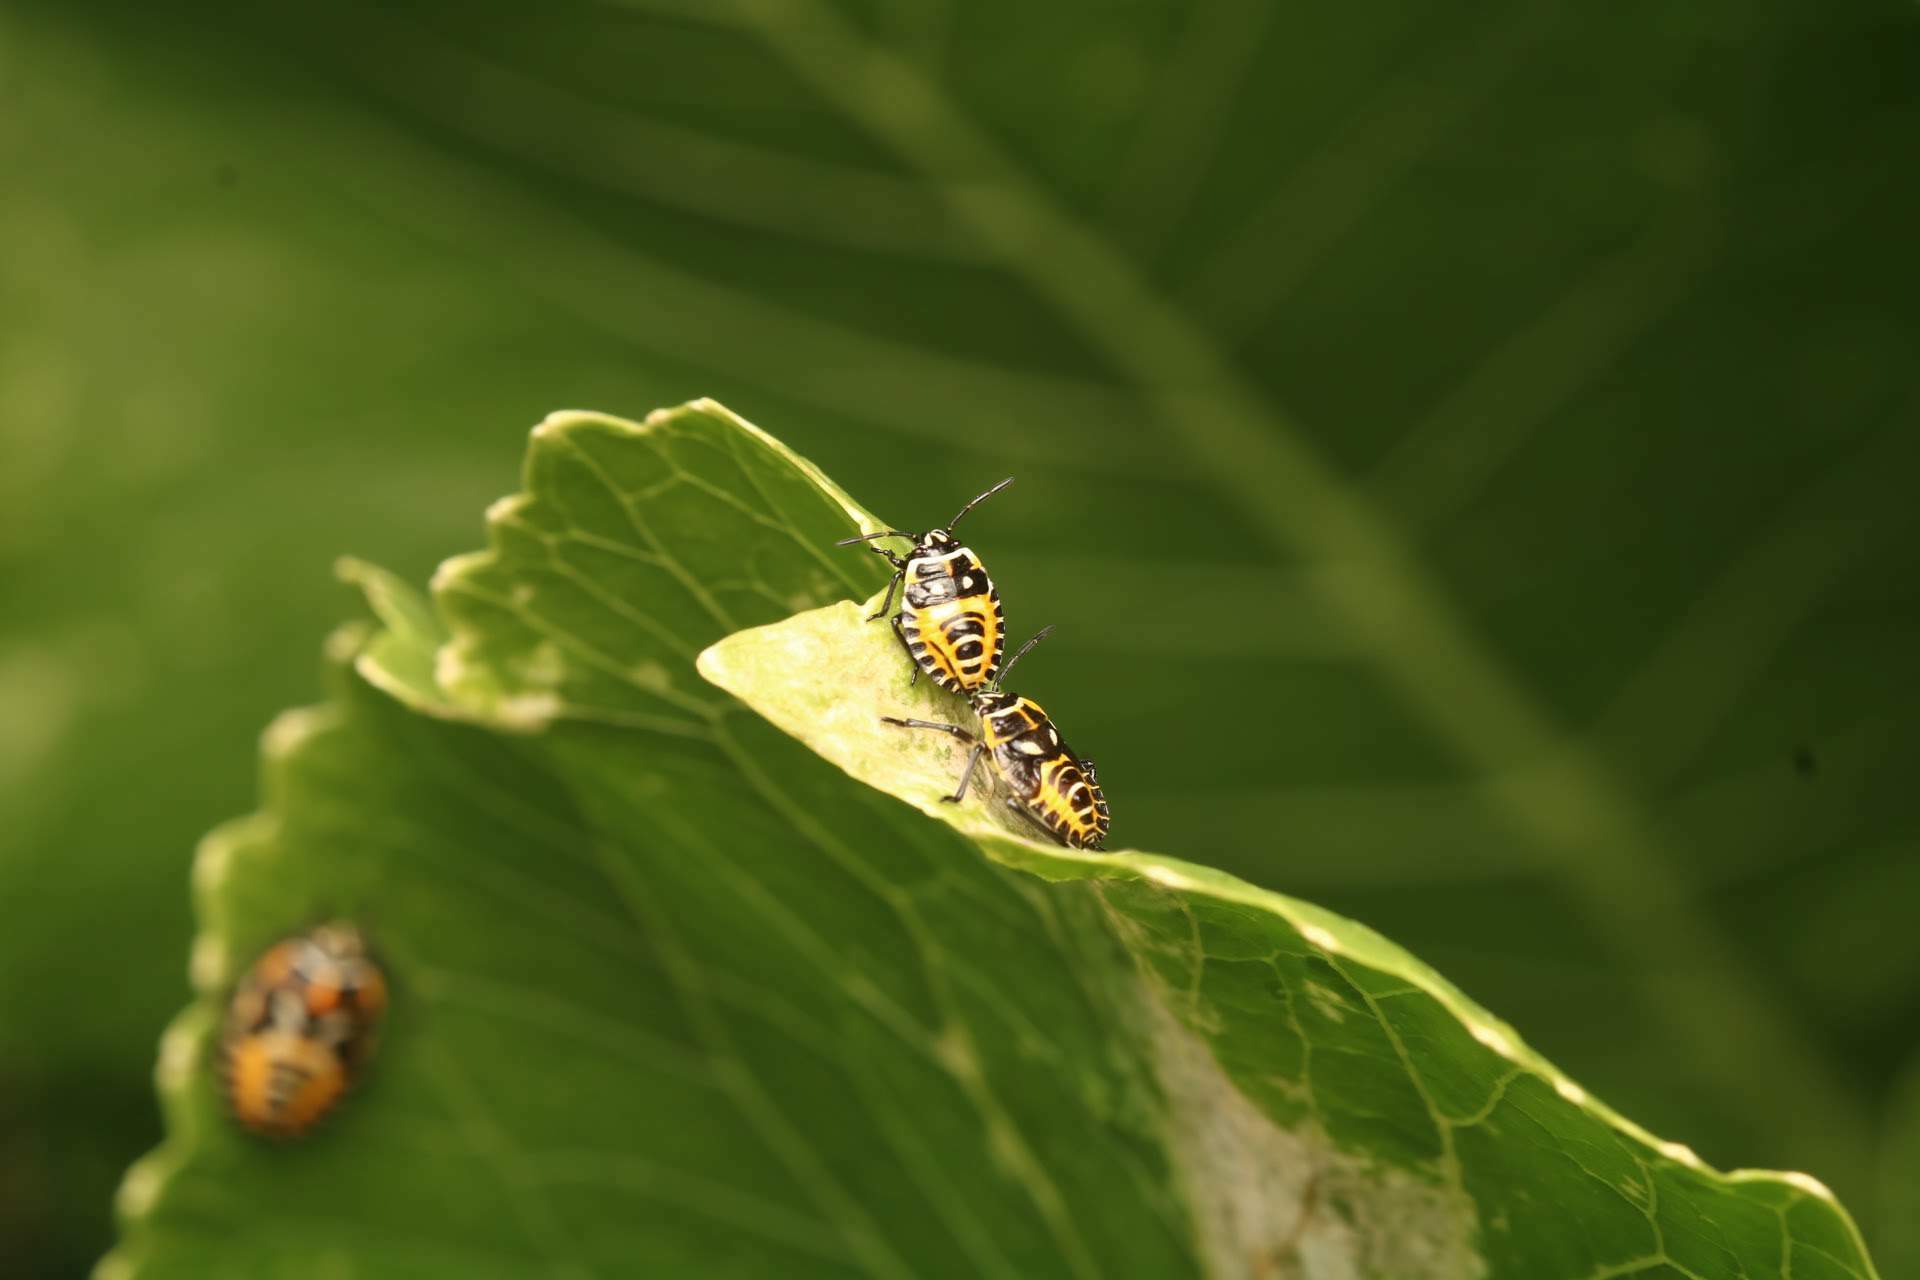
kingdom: Animalia
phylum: Arthropoda
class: Insecta
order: Hemiptera
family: Pentatomidae
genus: Eurydema
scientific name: Eurydema ventralis
